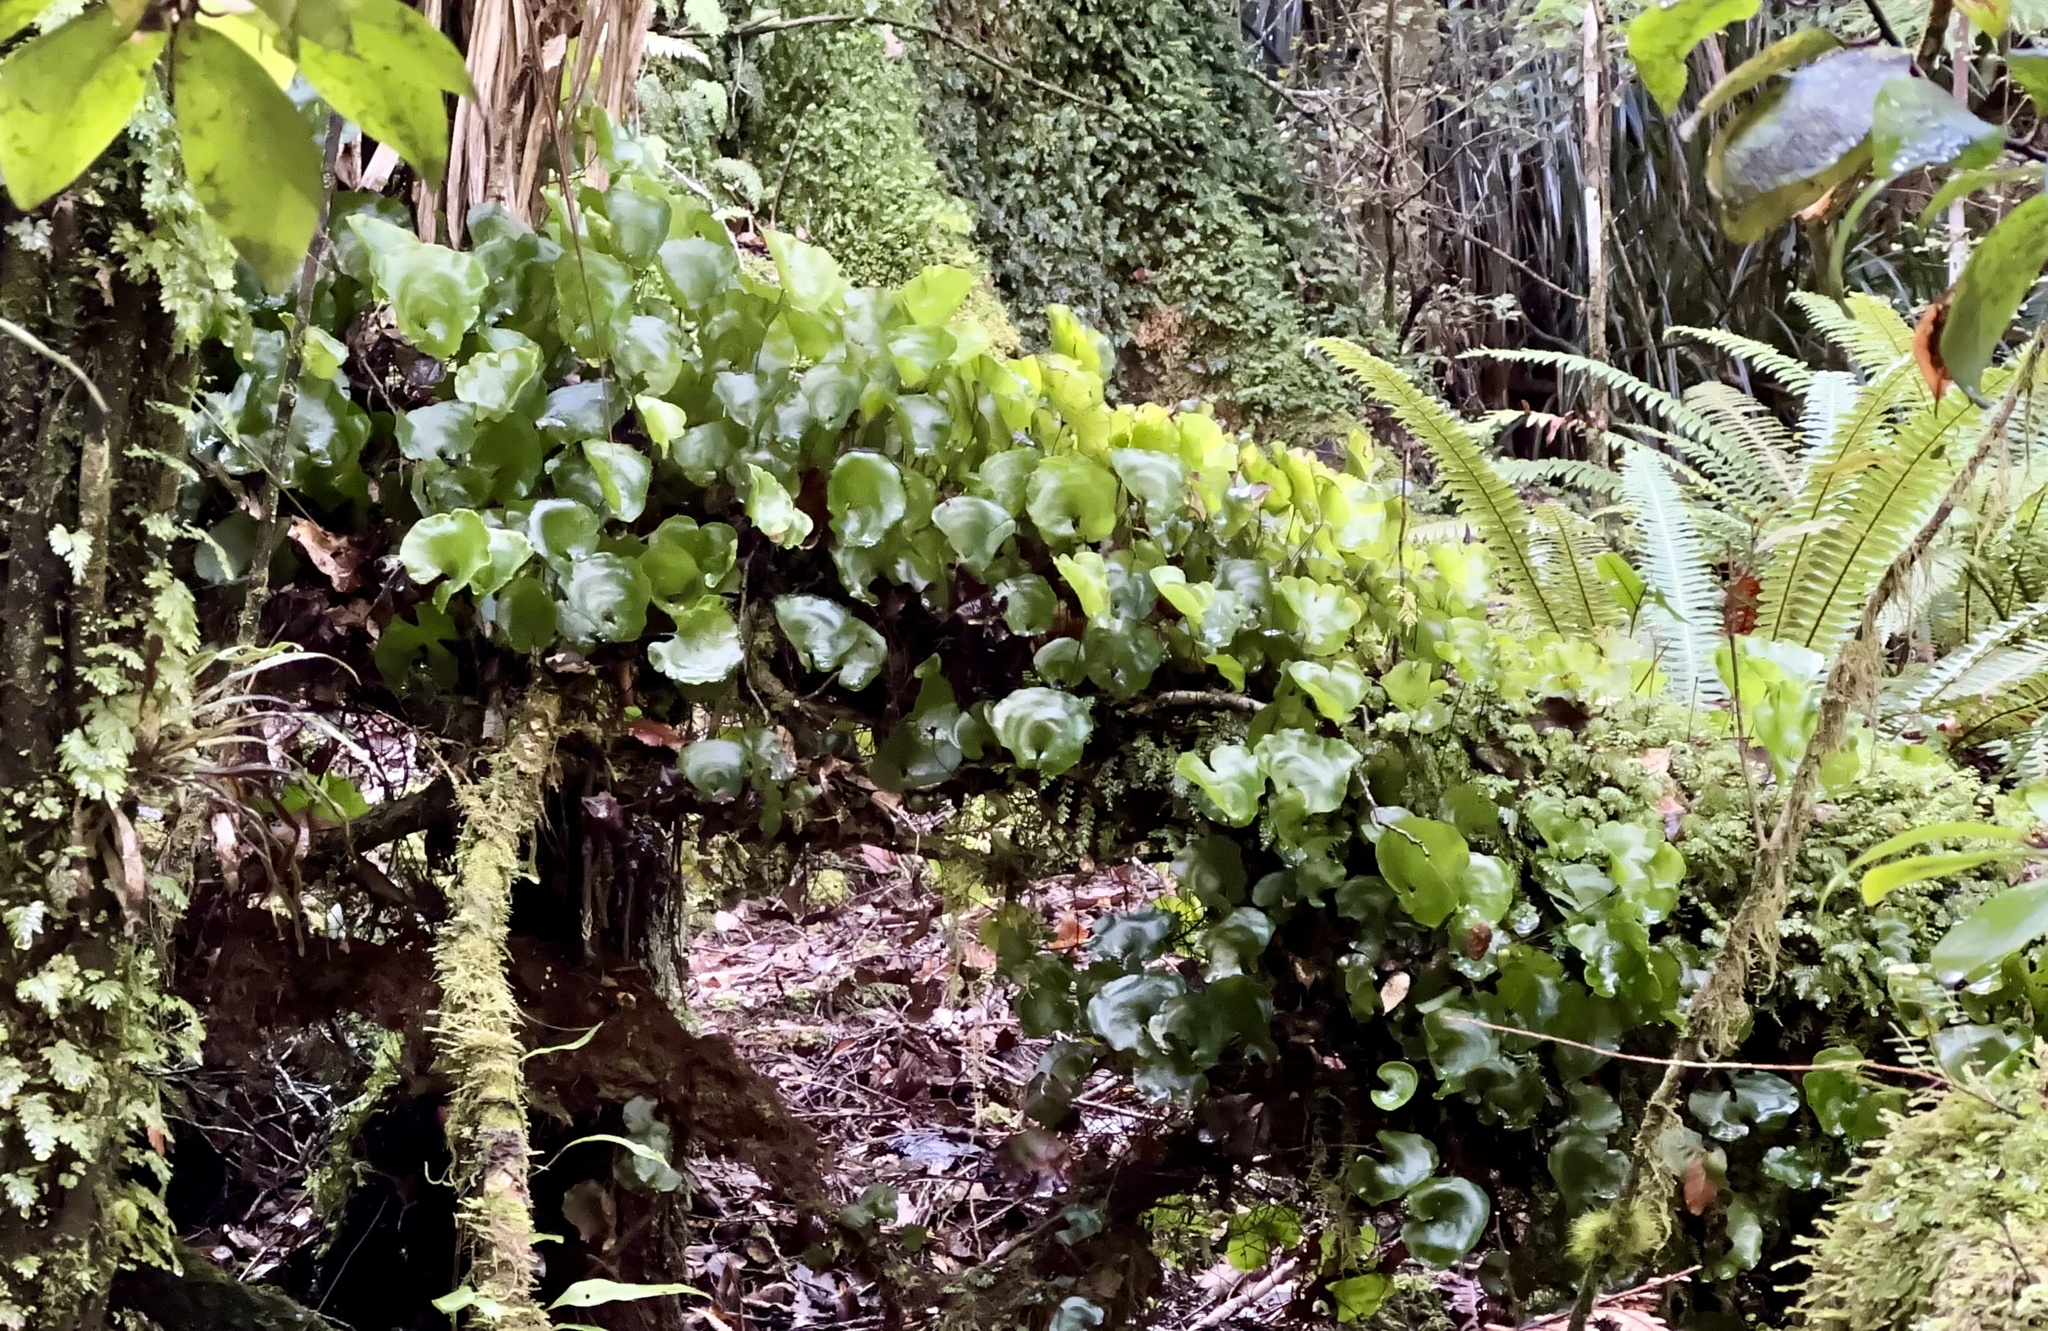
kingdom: Plantae
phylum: Tracheophyta
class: Polypodiopsida
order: Hymenophyllales
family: Hymenophyllaceae
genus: Hymenophyllum
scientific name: Hymenophyllum nephrophyllum
